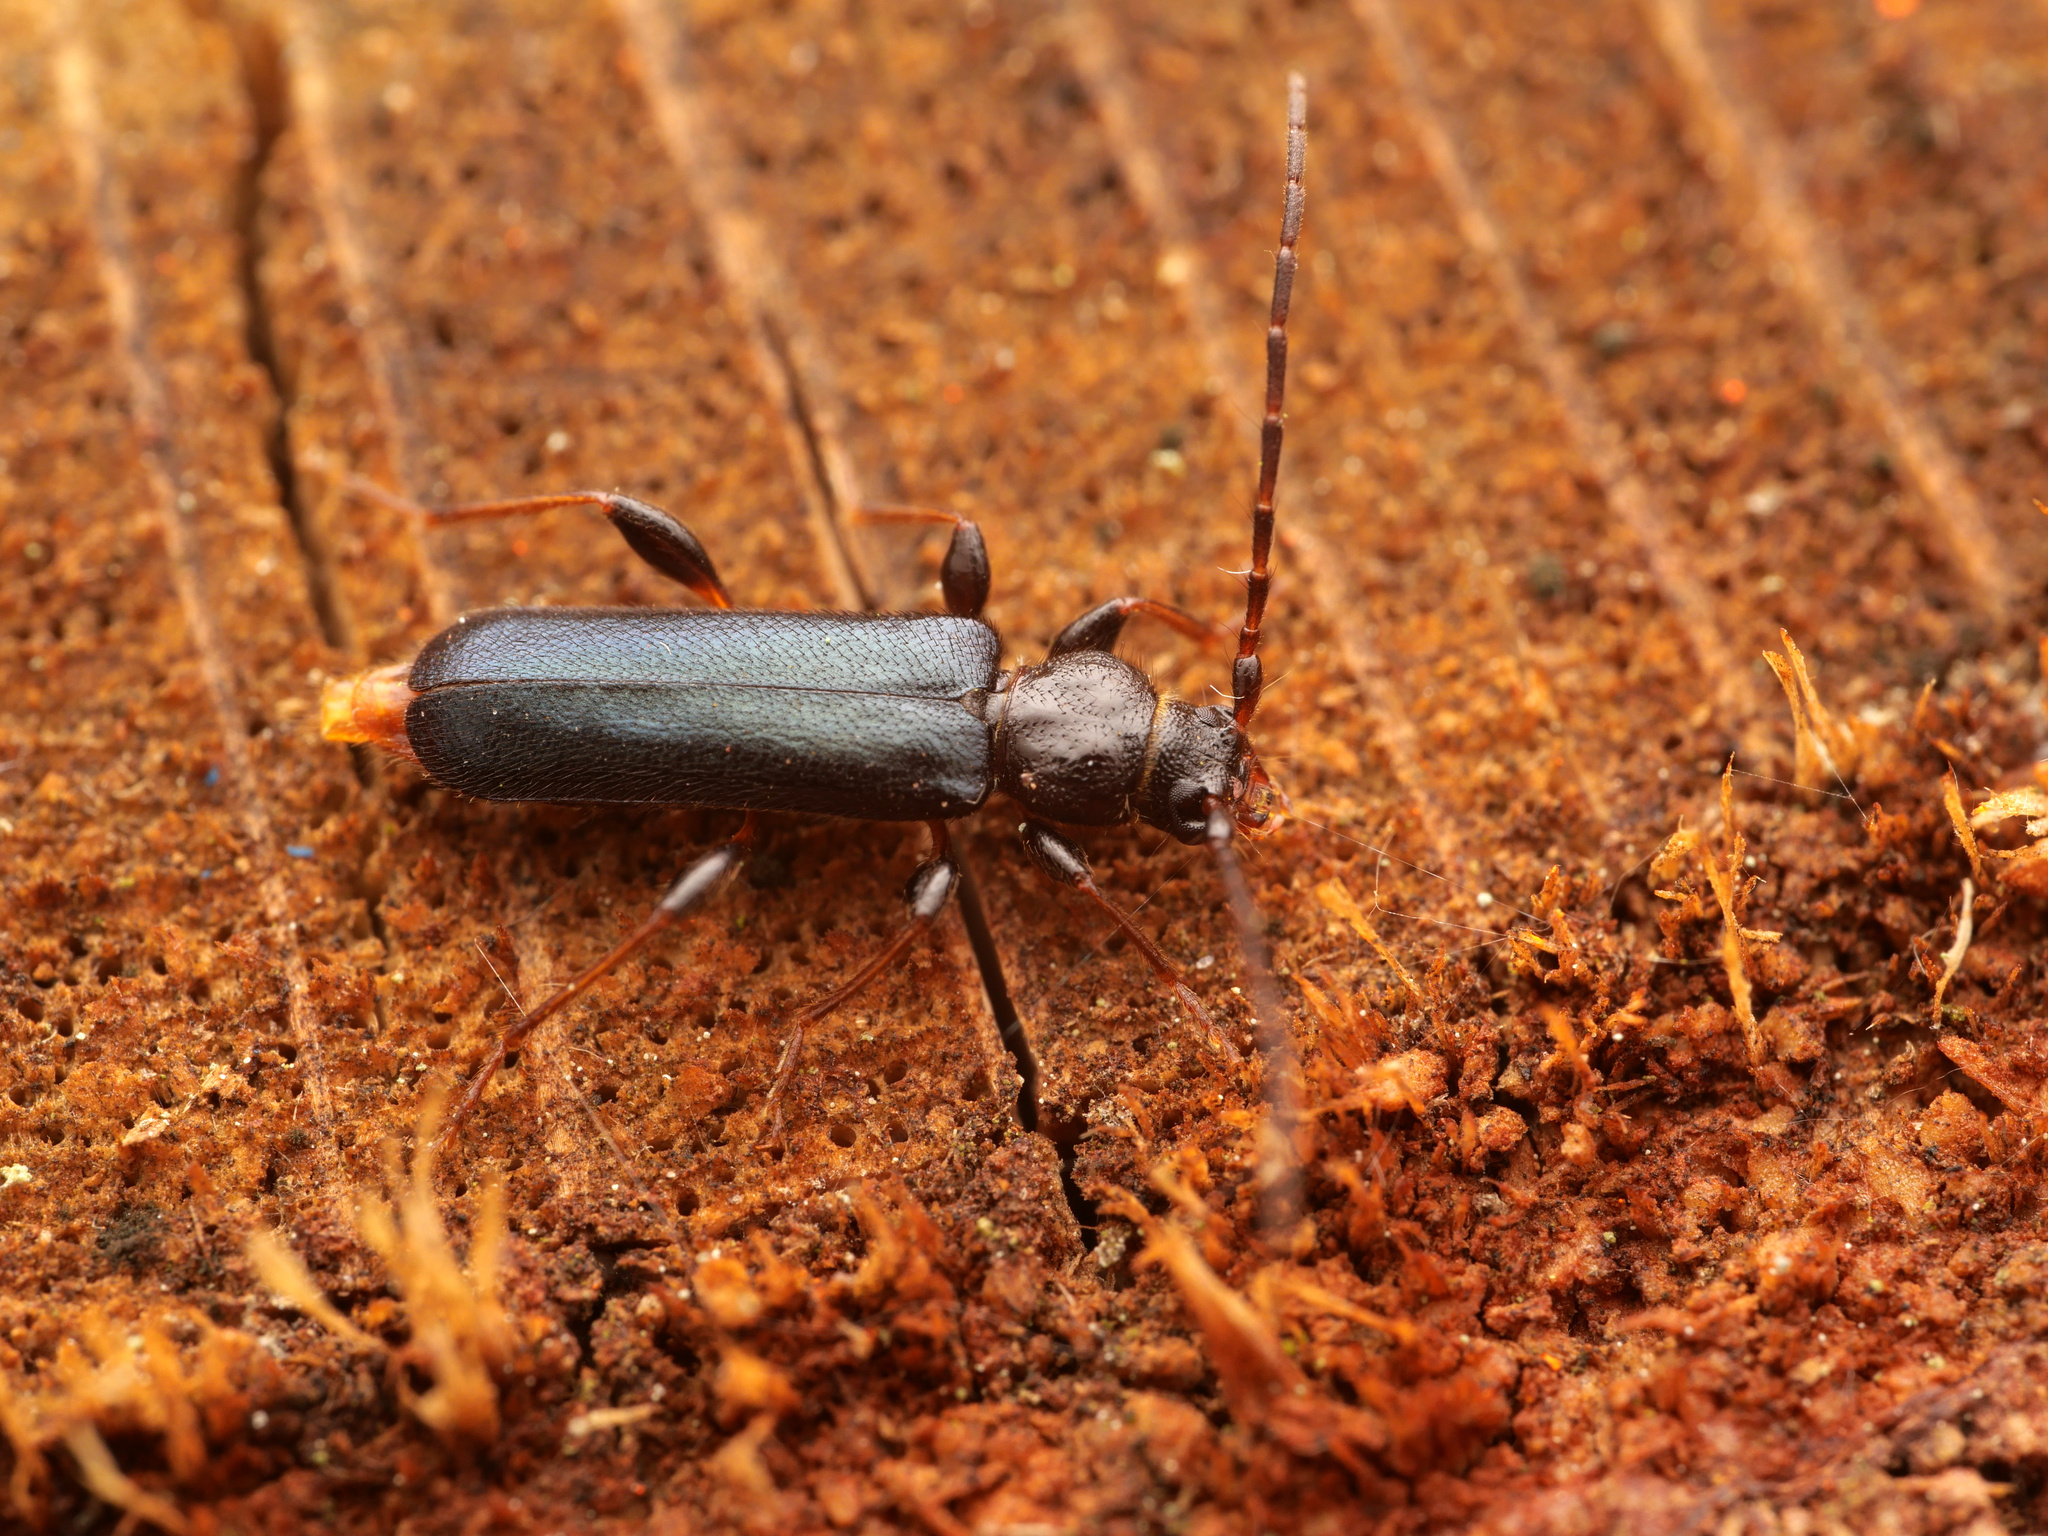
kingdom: Animalia
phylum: Arthropoda
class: Insecta
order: Coleoptera
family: Cerambycidae
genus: Phymatodes
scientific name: Phymatodes testaceus
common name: Long-horned beetle
